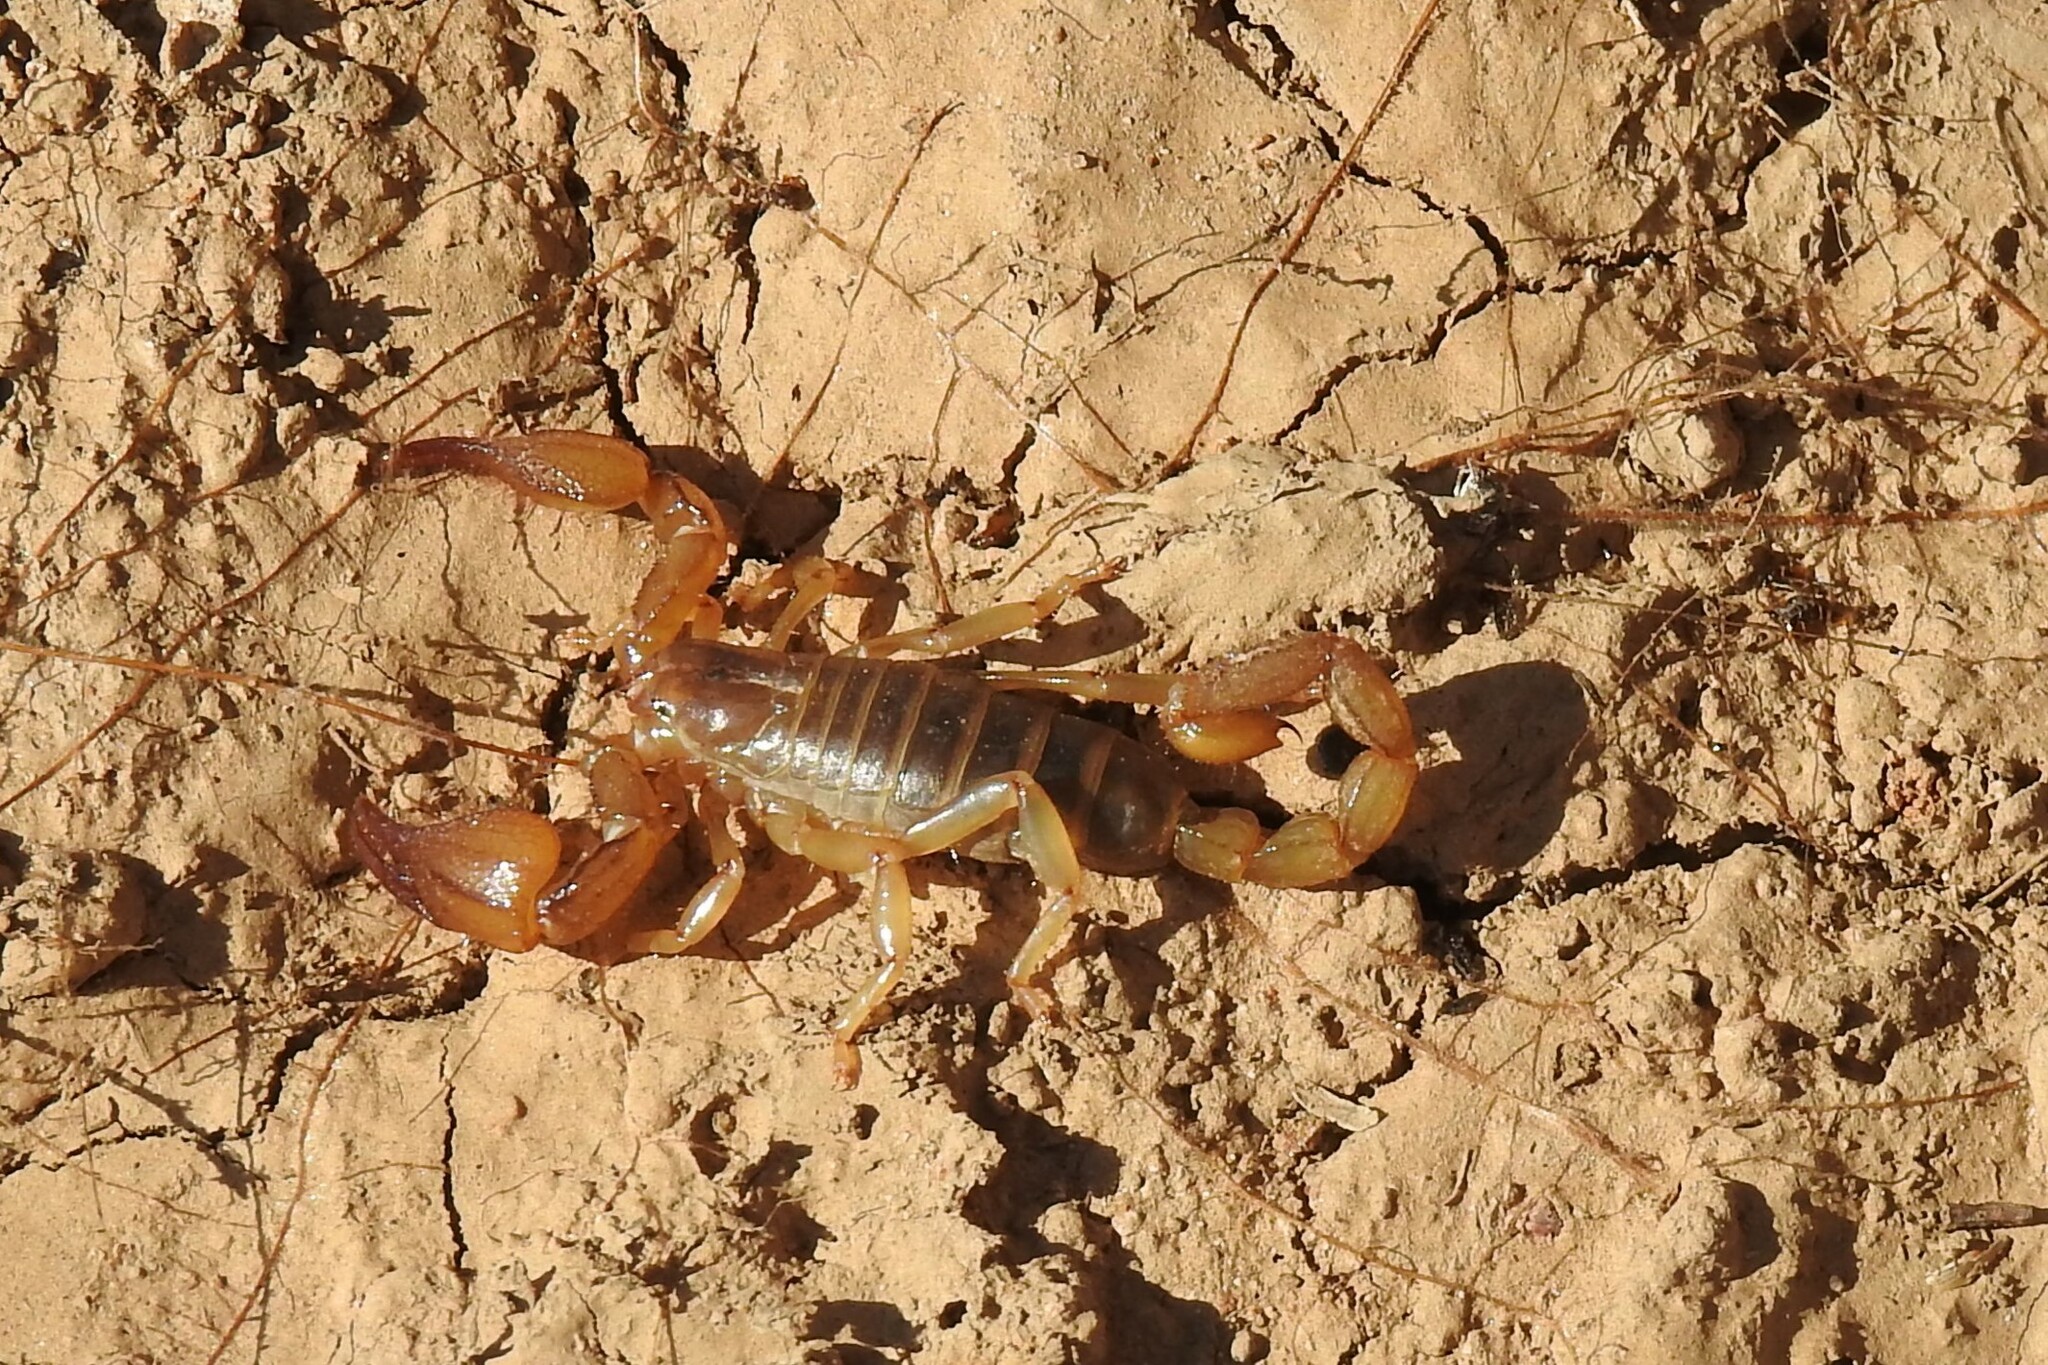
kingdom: Animalia
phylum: Arthropoda
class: Arachnida
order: Scorpiones
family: Diplocentridae
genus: Diplocentrus
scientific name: Diplocentrus zacatecanus
